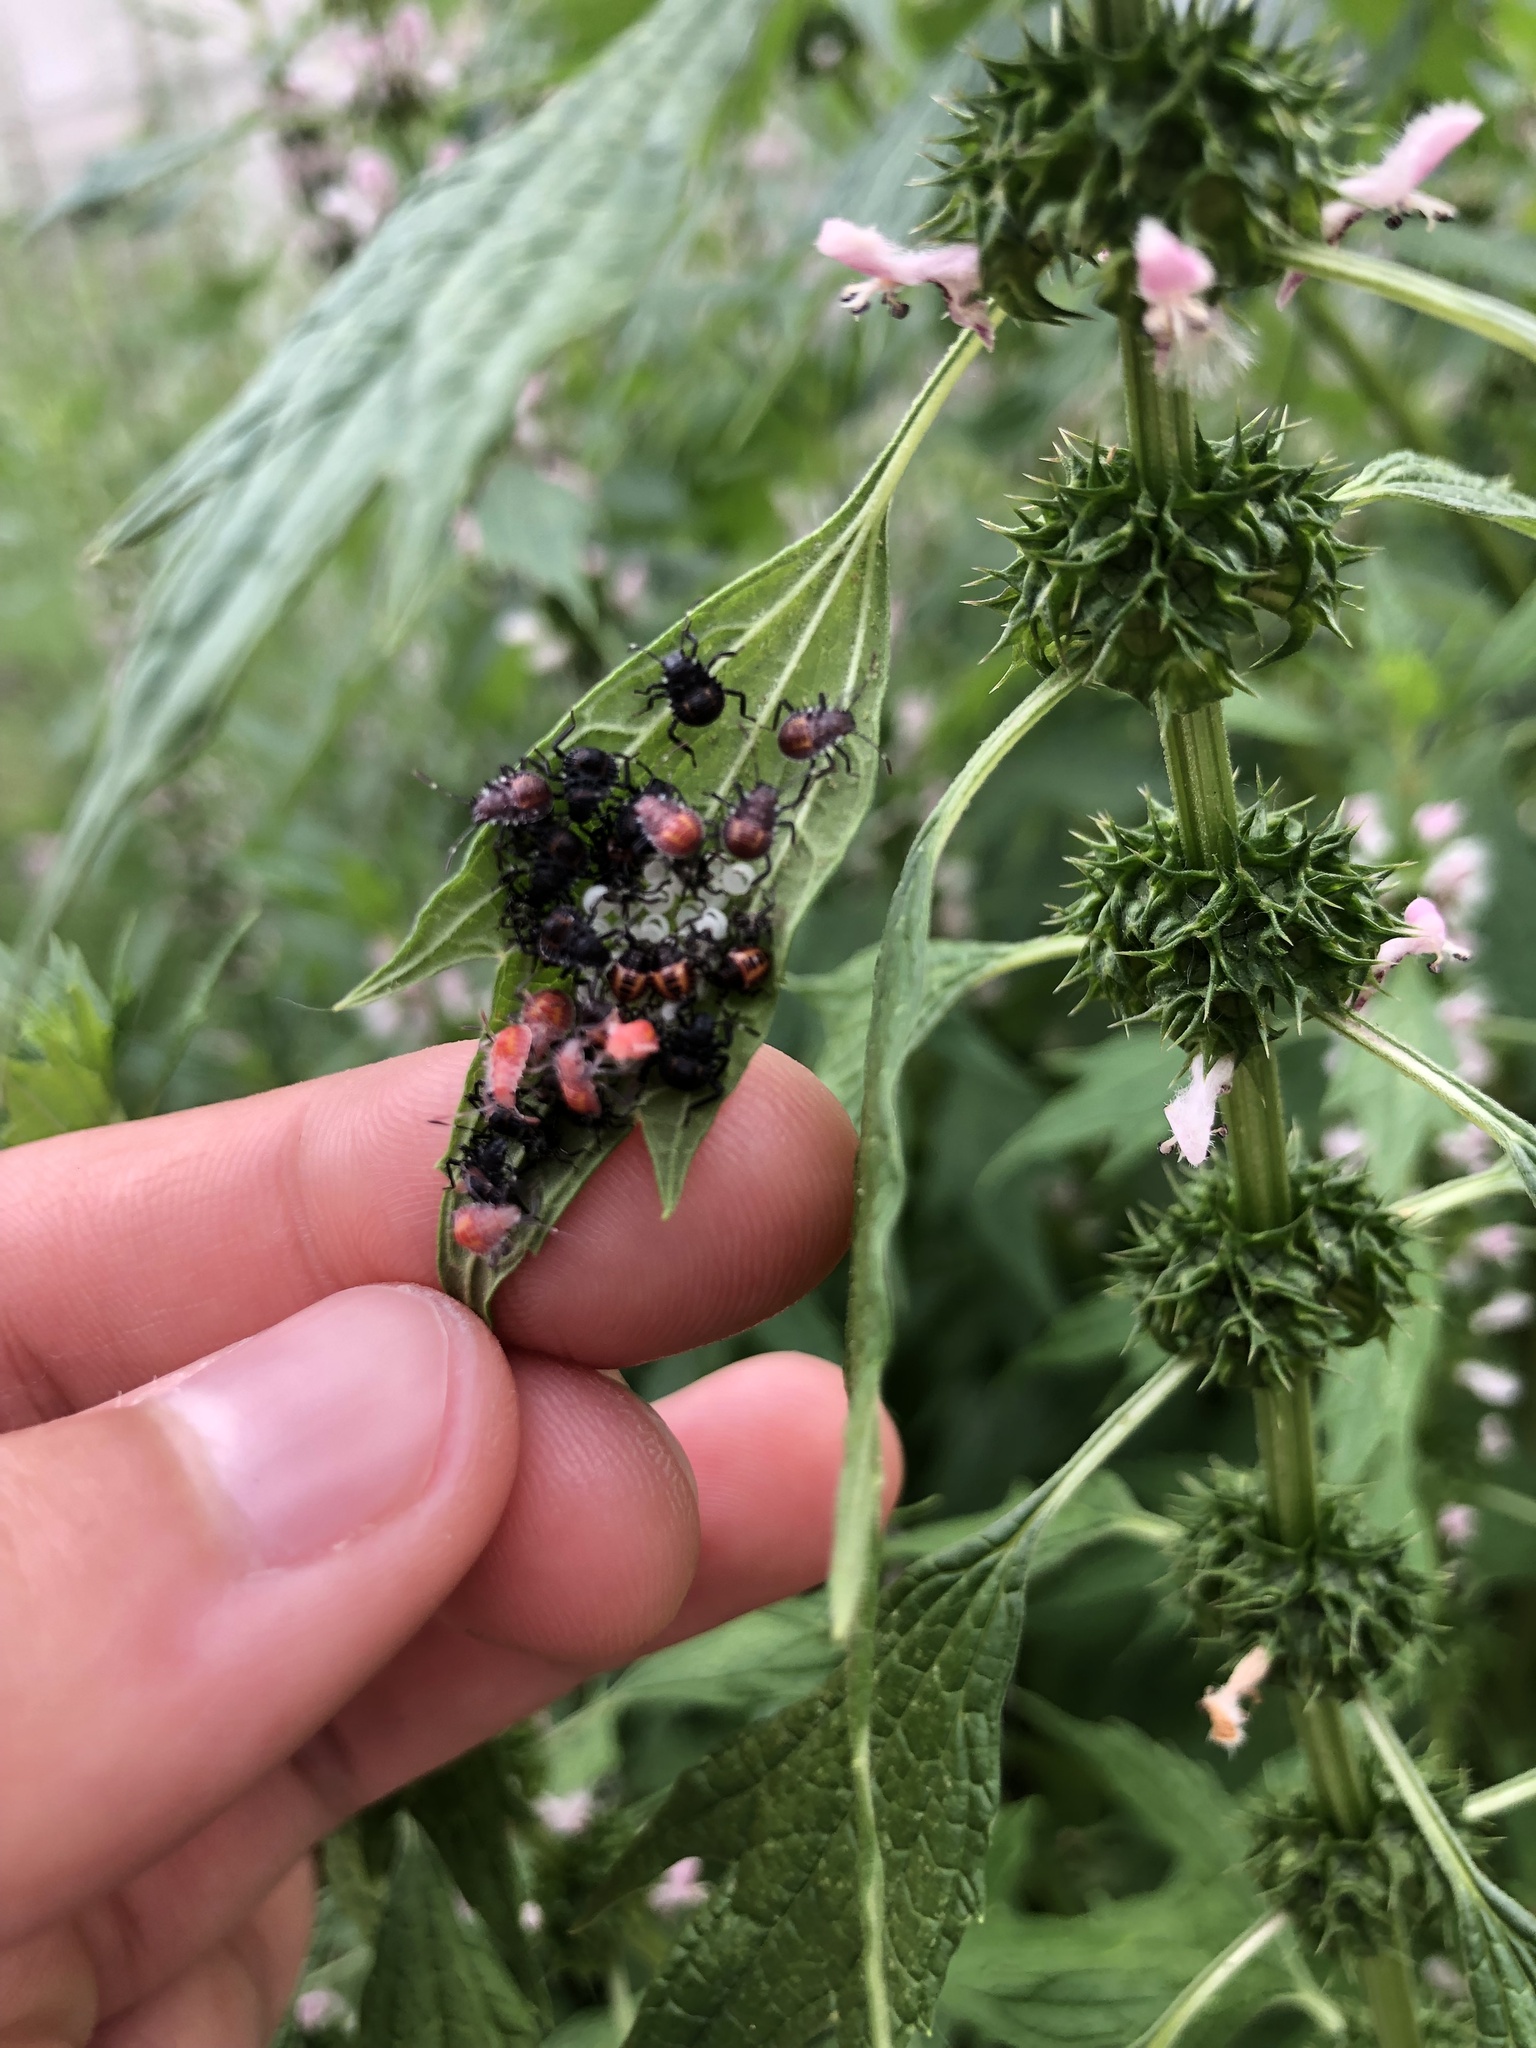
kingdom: Animalia
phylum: Arthropoda
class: Insecta
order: Hemiptera
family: Pentatomidae
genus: Halyomorpha
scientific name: Halyomorpha halys
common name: Brown marmorated stink bug
